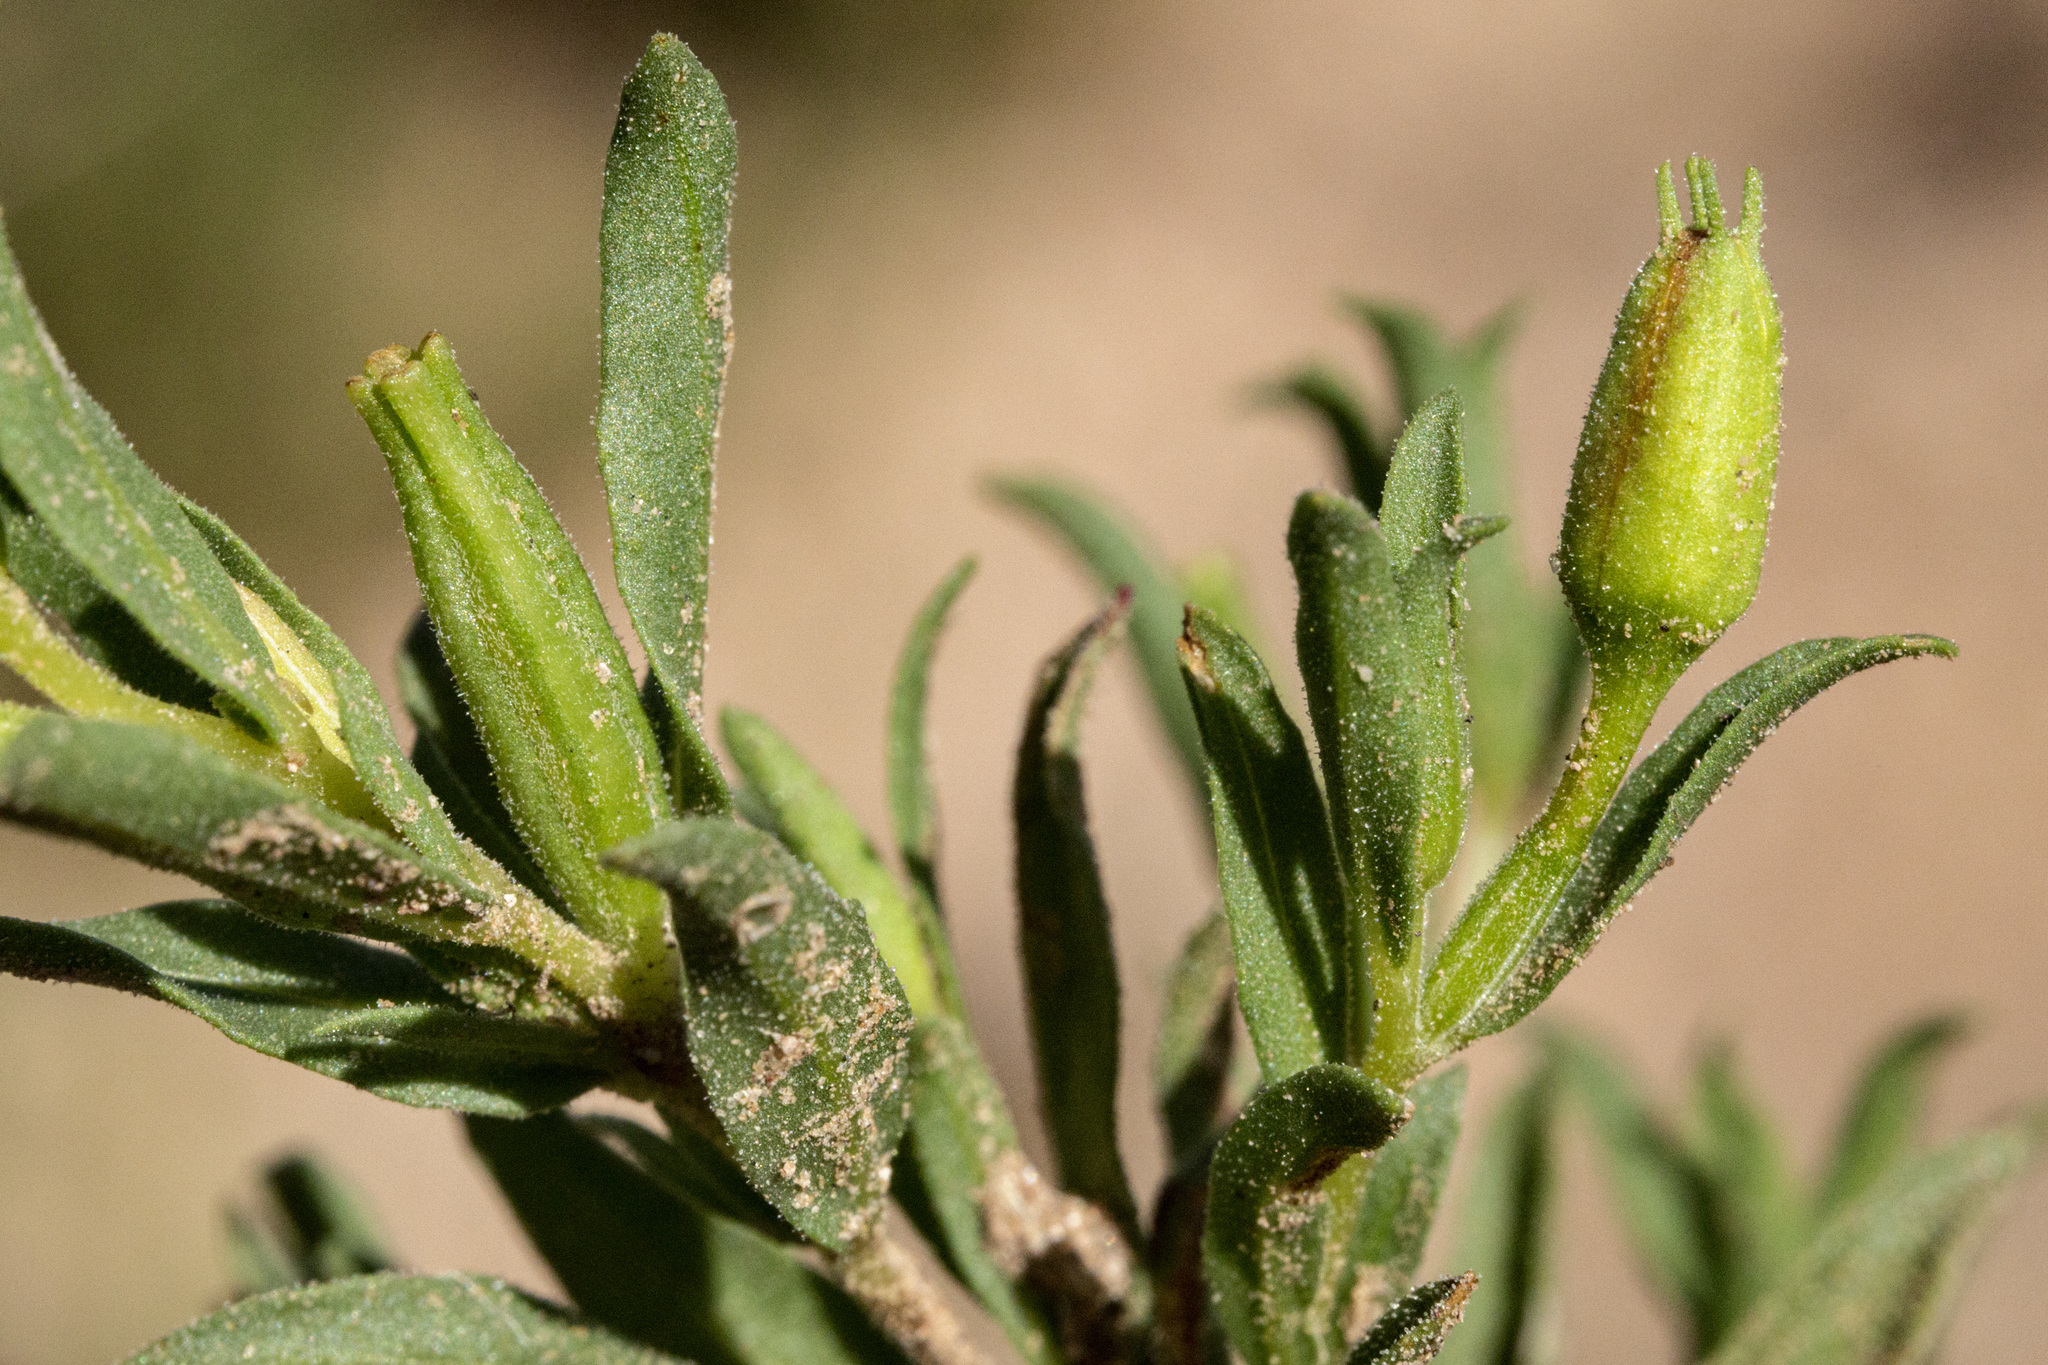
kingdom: Plantae
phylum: Tracheophyta
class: Magnoliopsida
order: Myrtales
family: Onagraceae
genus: Oenothera
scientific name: Oenothera tubicula
